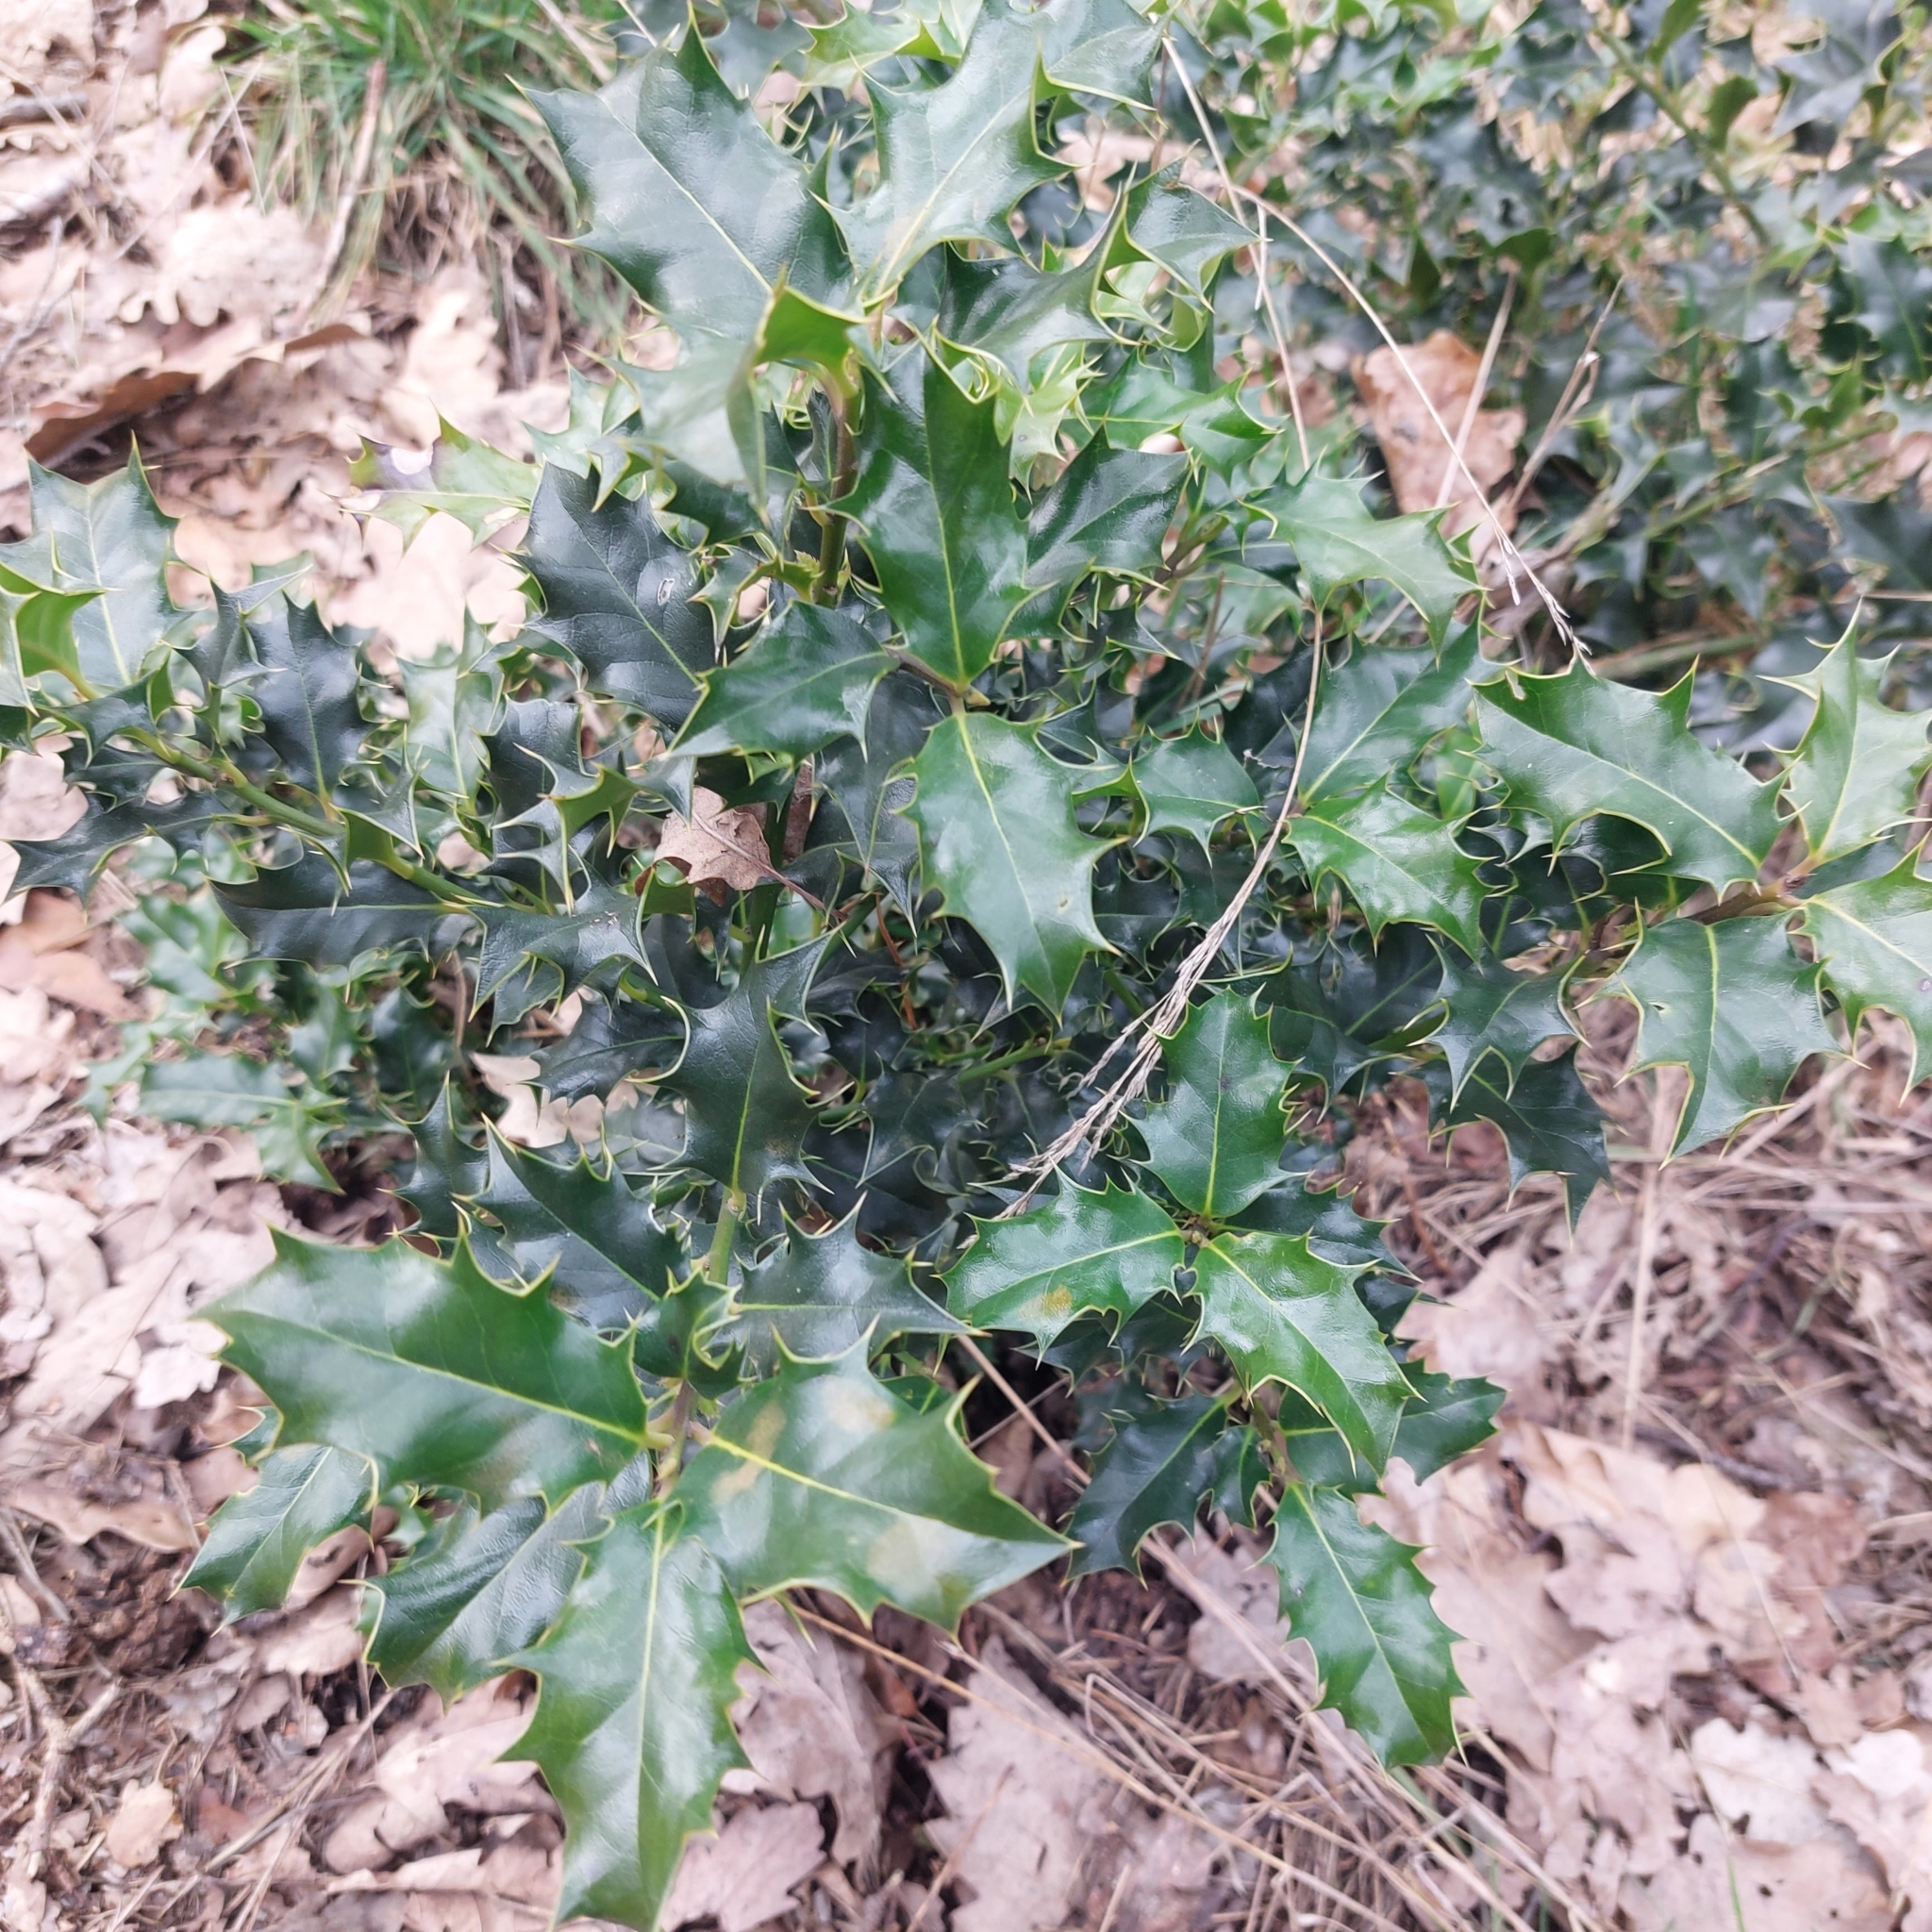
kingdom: Plantae
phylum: Tracheophyta
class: Magnoliopsida
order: Aquifoliales
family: Aquifoliaceae
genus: Ilex
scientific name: Ilex aquifolium
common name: English holly
